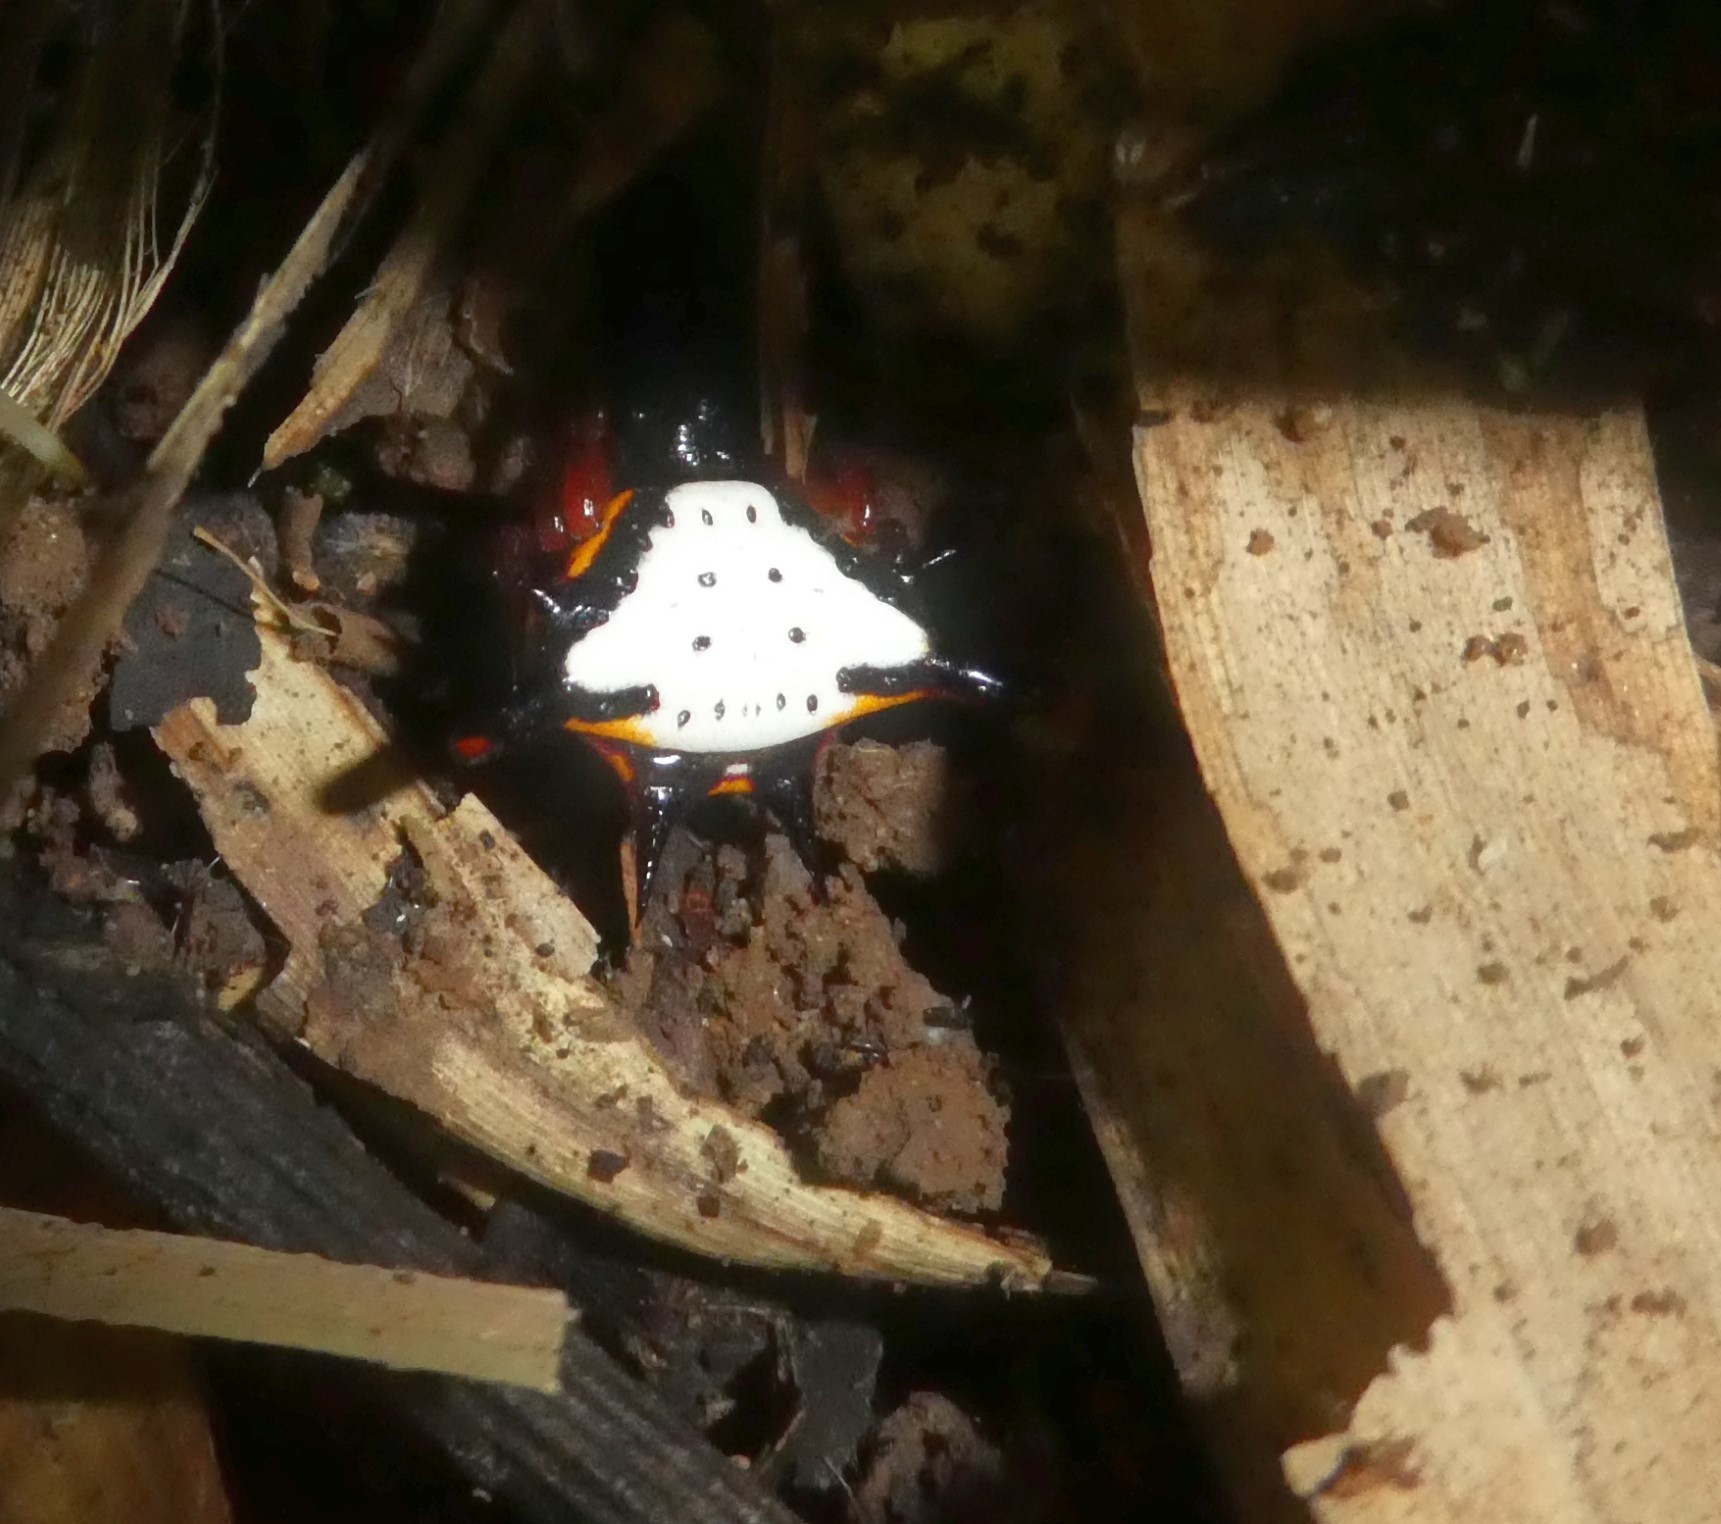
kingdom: Animalia
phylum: Arthropoda
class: Arachnida
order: Araneae
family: Araneidae
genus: Gasteracantha
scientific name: Gasteracantha crucigera
